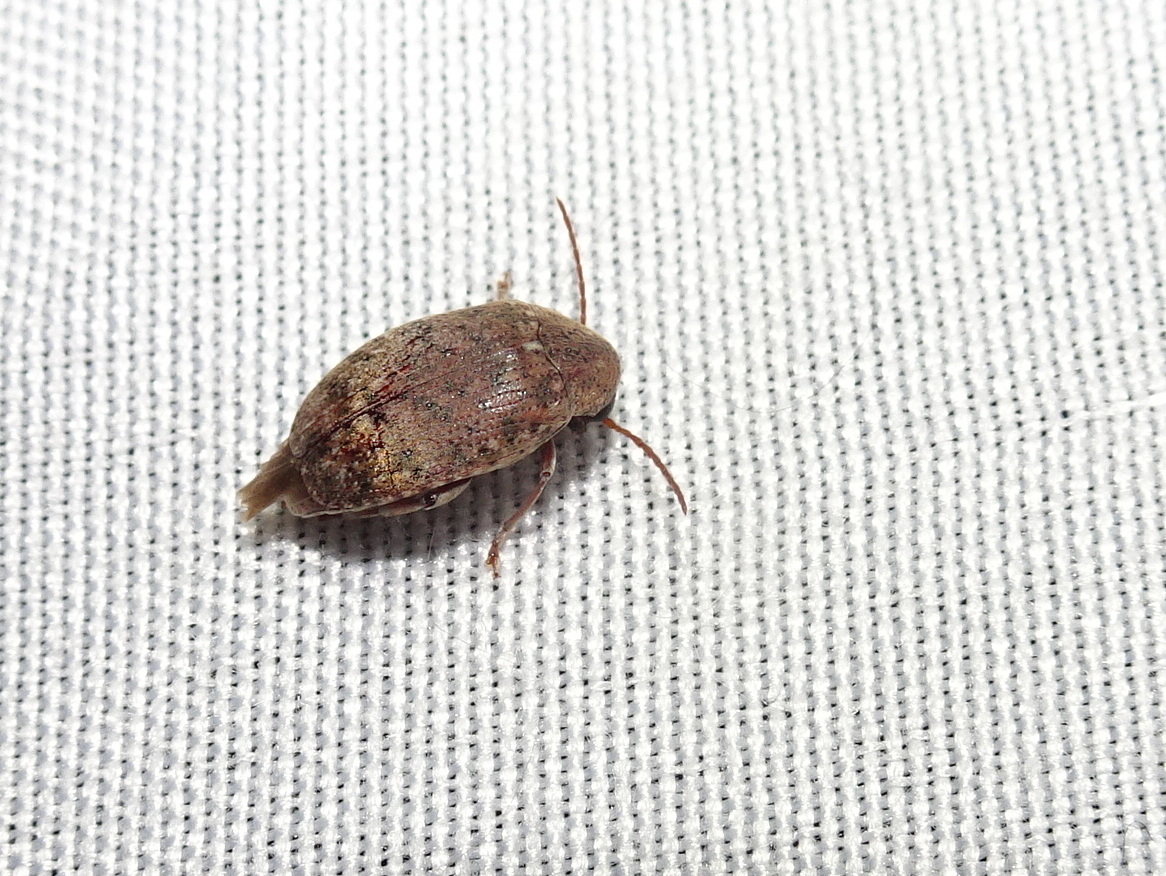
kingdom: Animalia
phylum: Arthropoda
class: Insecta
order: Coleoptera
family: Chrysomelidae
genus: Amblycerus
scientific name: Amblycerus robiniae
